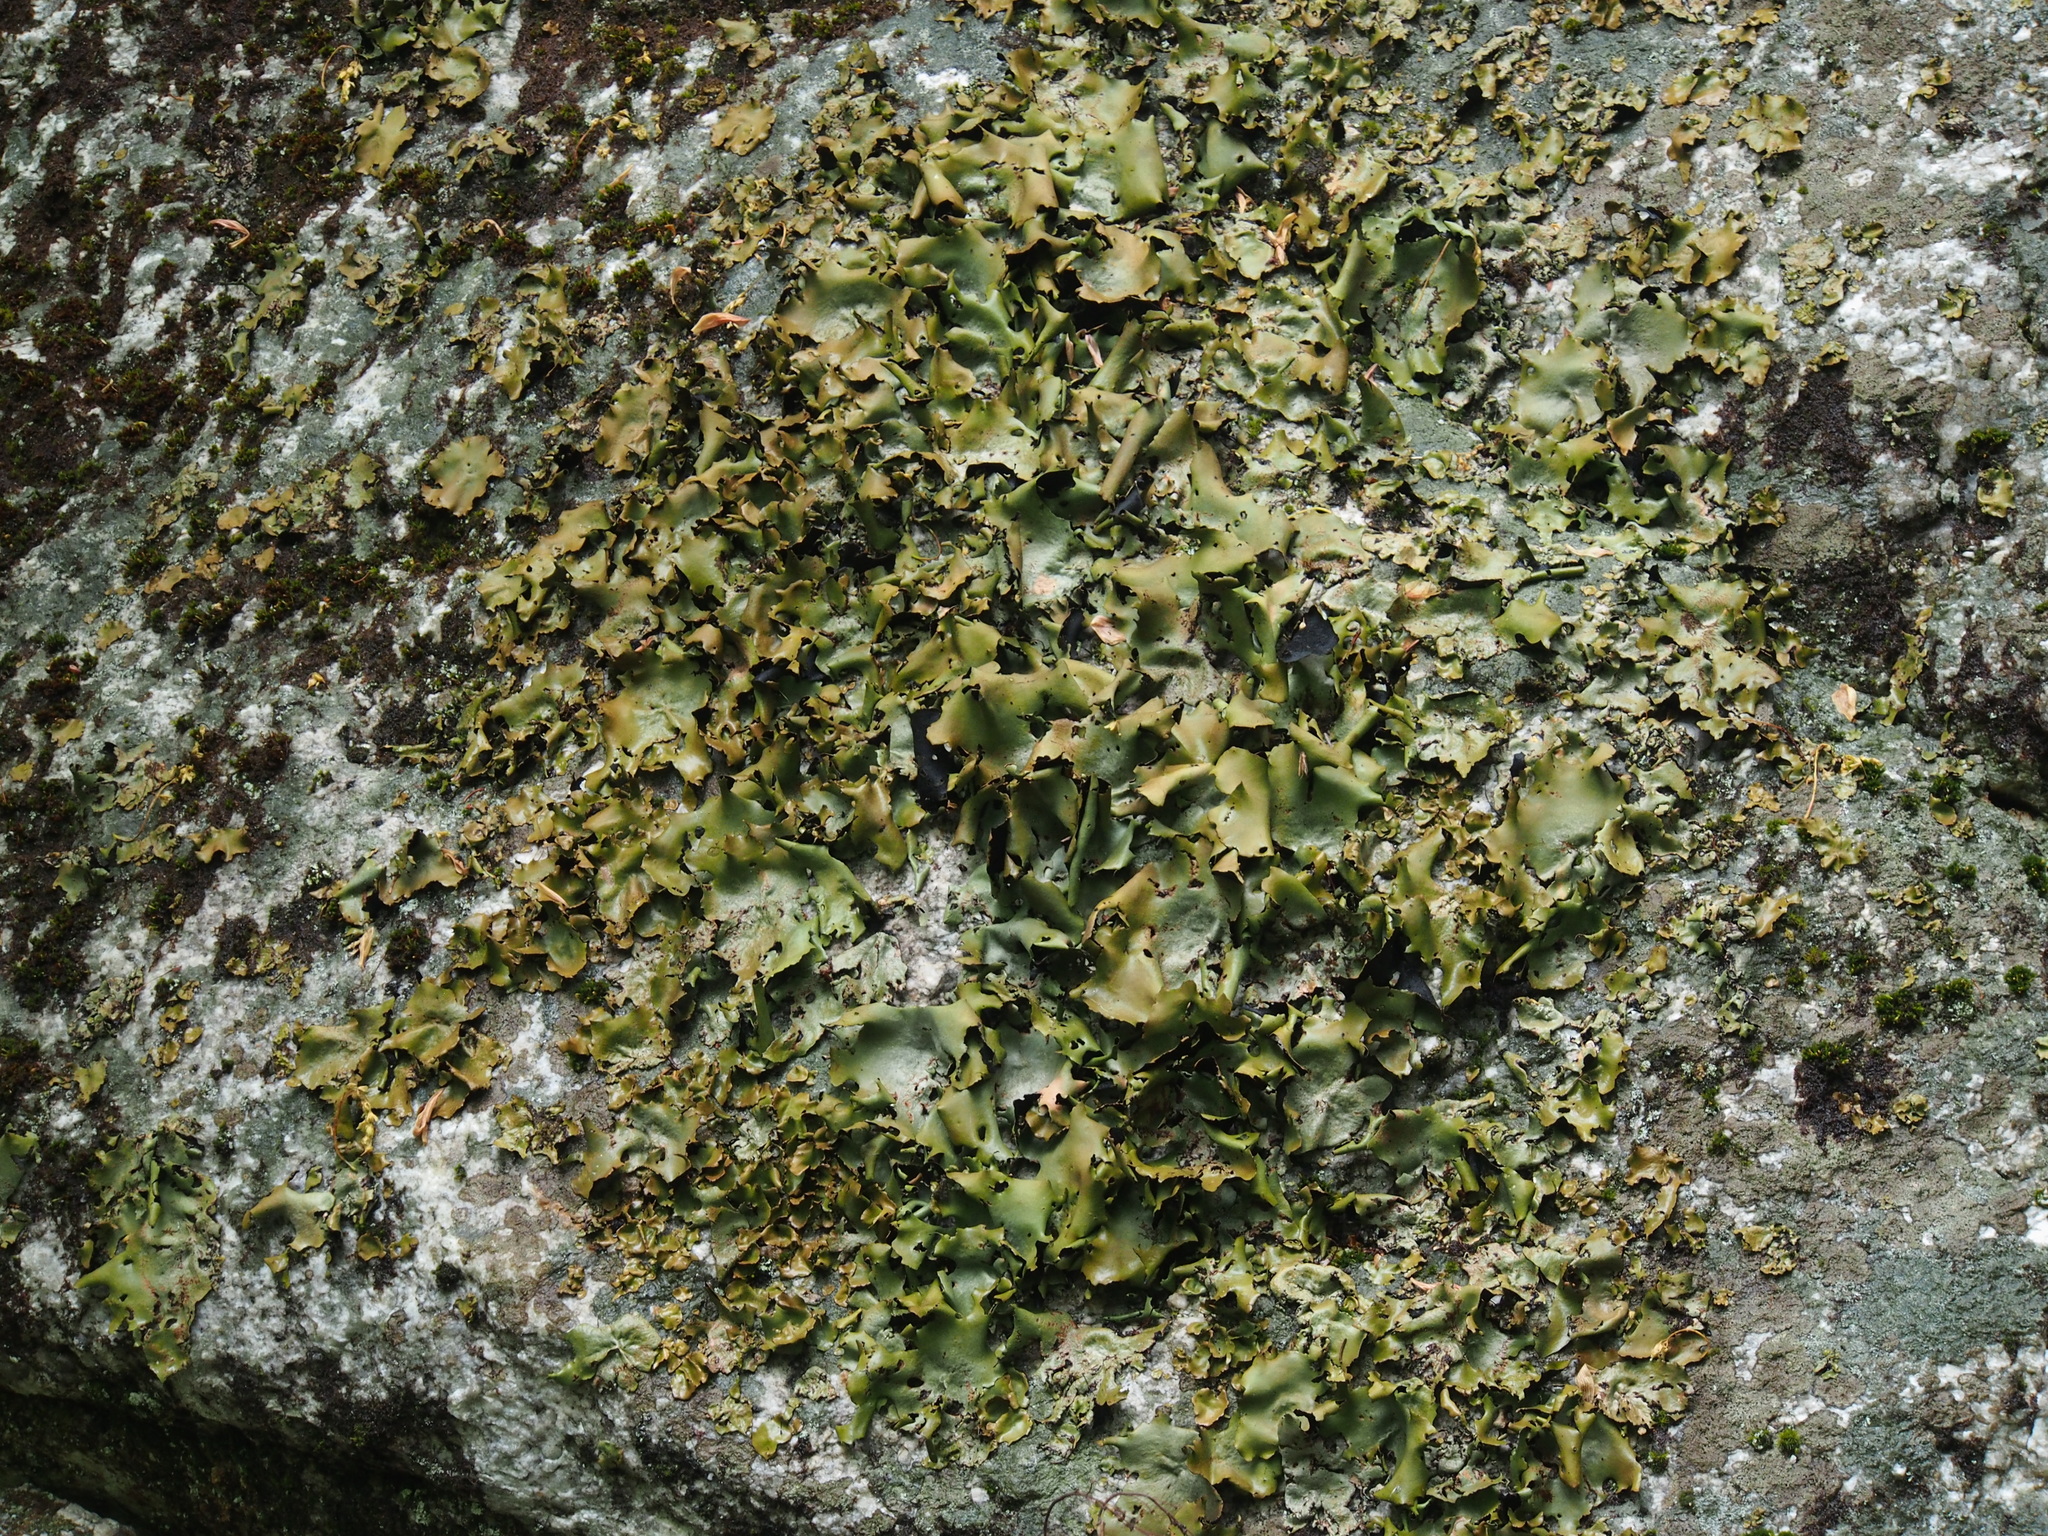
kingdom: Fungi
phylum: Ascomycota
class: Lecanoromycetes
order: Umbilicariales
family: Umbilicariaceae
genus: Umbilicaria
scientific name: Umbilicaria mammulata
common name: Smooth rock tripe
